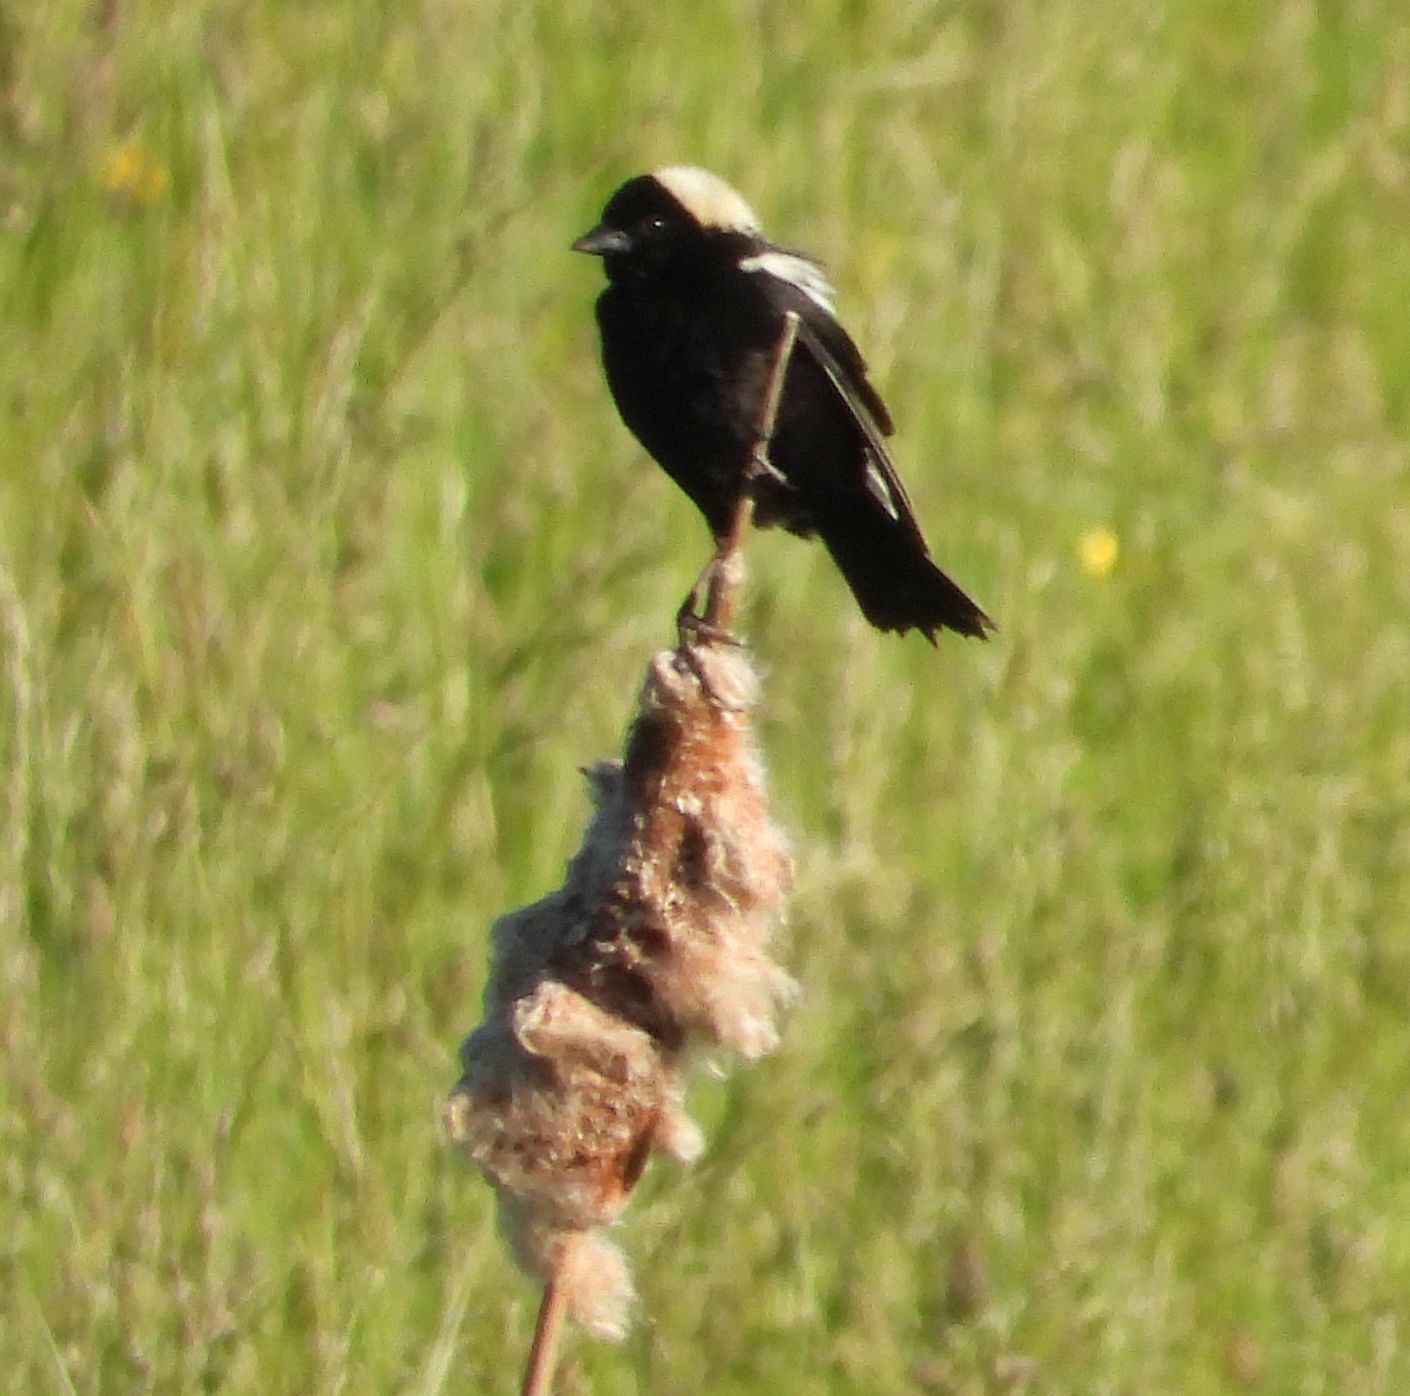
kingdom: Animalia
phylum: Chordata
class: Aves
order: Passeriformes
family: Icteridae
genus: Dolichonyx
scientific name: Dolichonyx oryzivorus
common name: Bobolink
